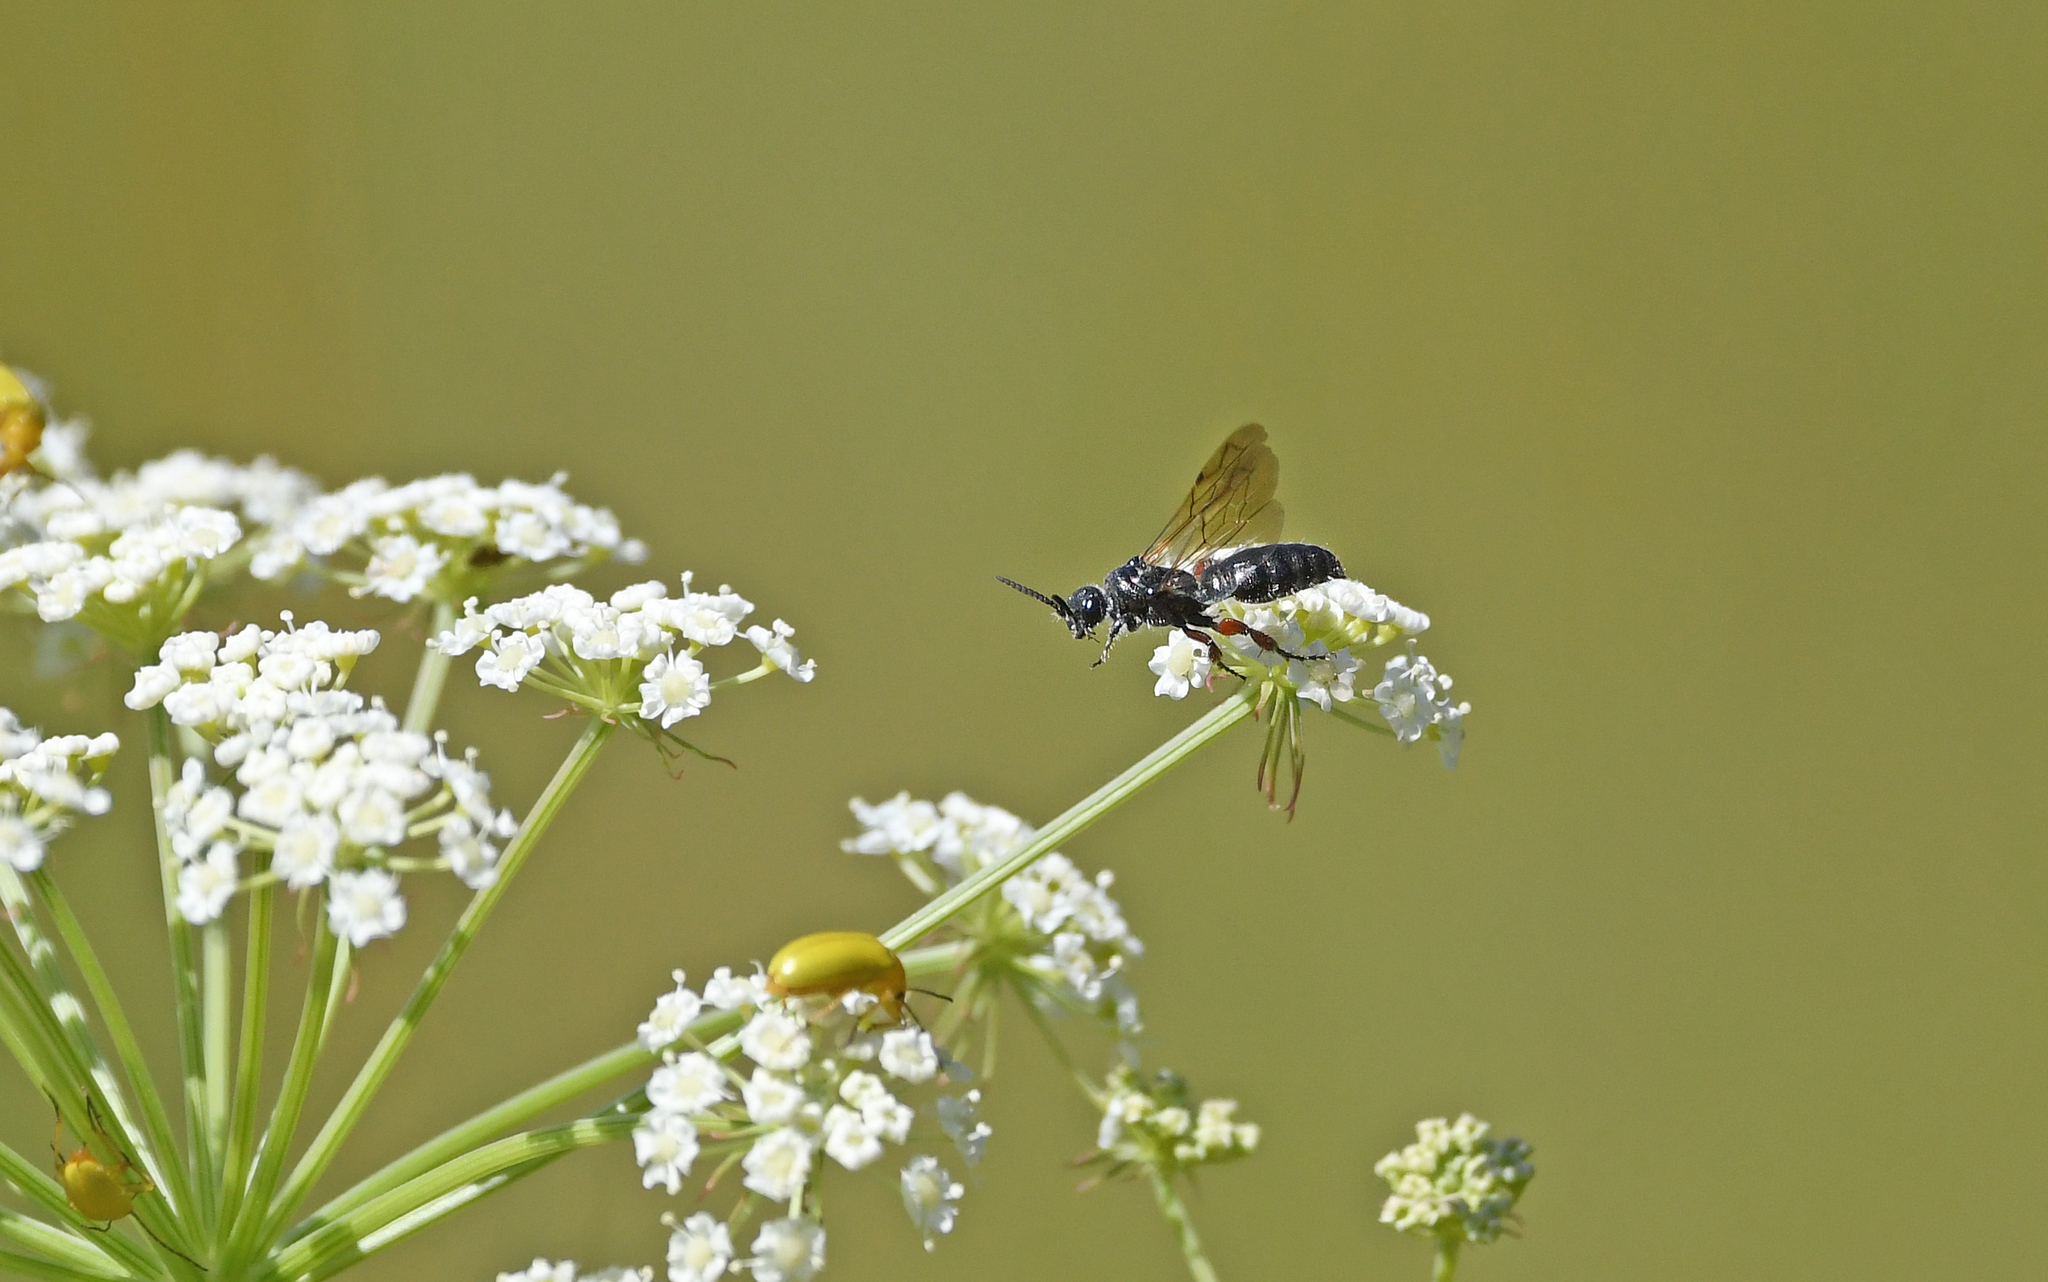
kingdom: Animalia
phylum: Arthropoda
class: Insecta
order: Hymenoptera
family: Tiphiidae
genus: Tiphia
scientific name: Tiphia femorata
